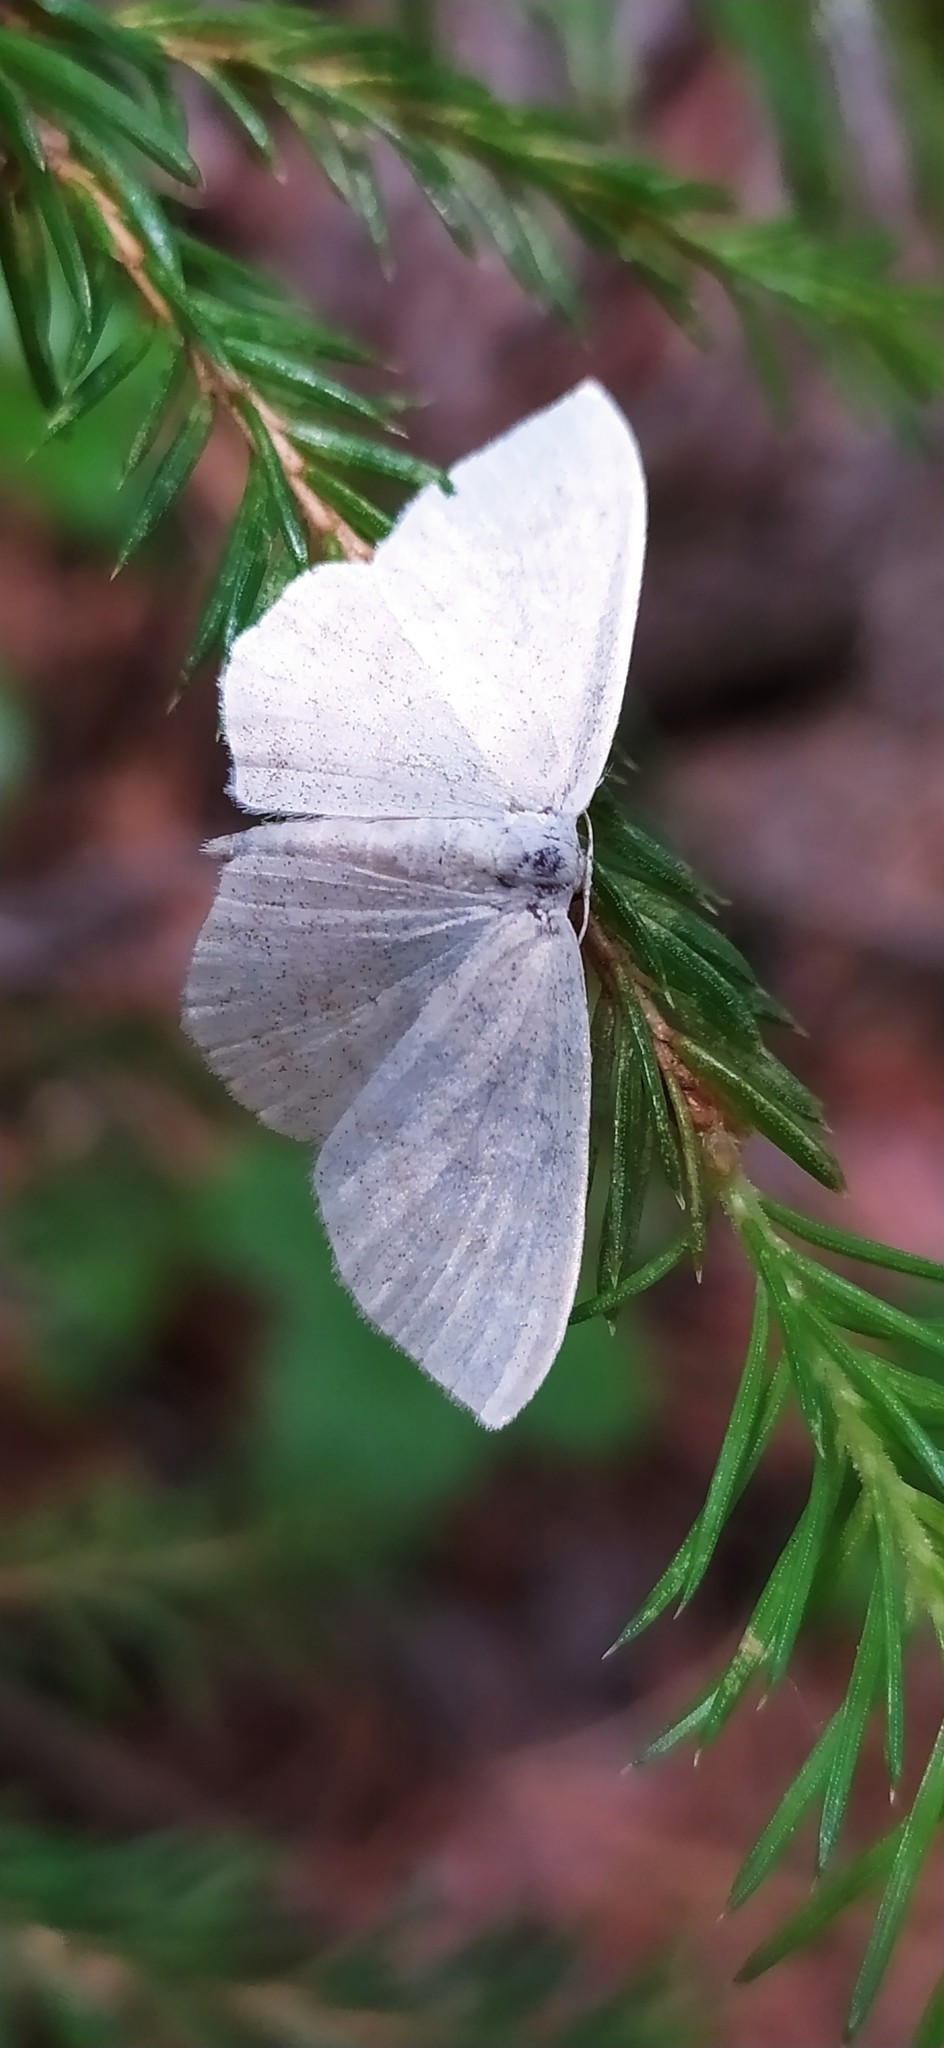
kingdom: Animalia
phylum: Arthropoda
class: Insecta
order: Lepidoptera
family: Geometridae
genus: Scopula
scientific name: Scopula floslactata
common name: Cream wave
